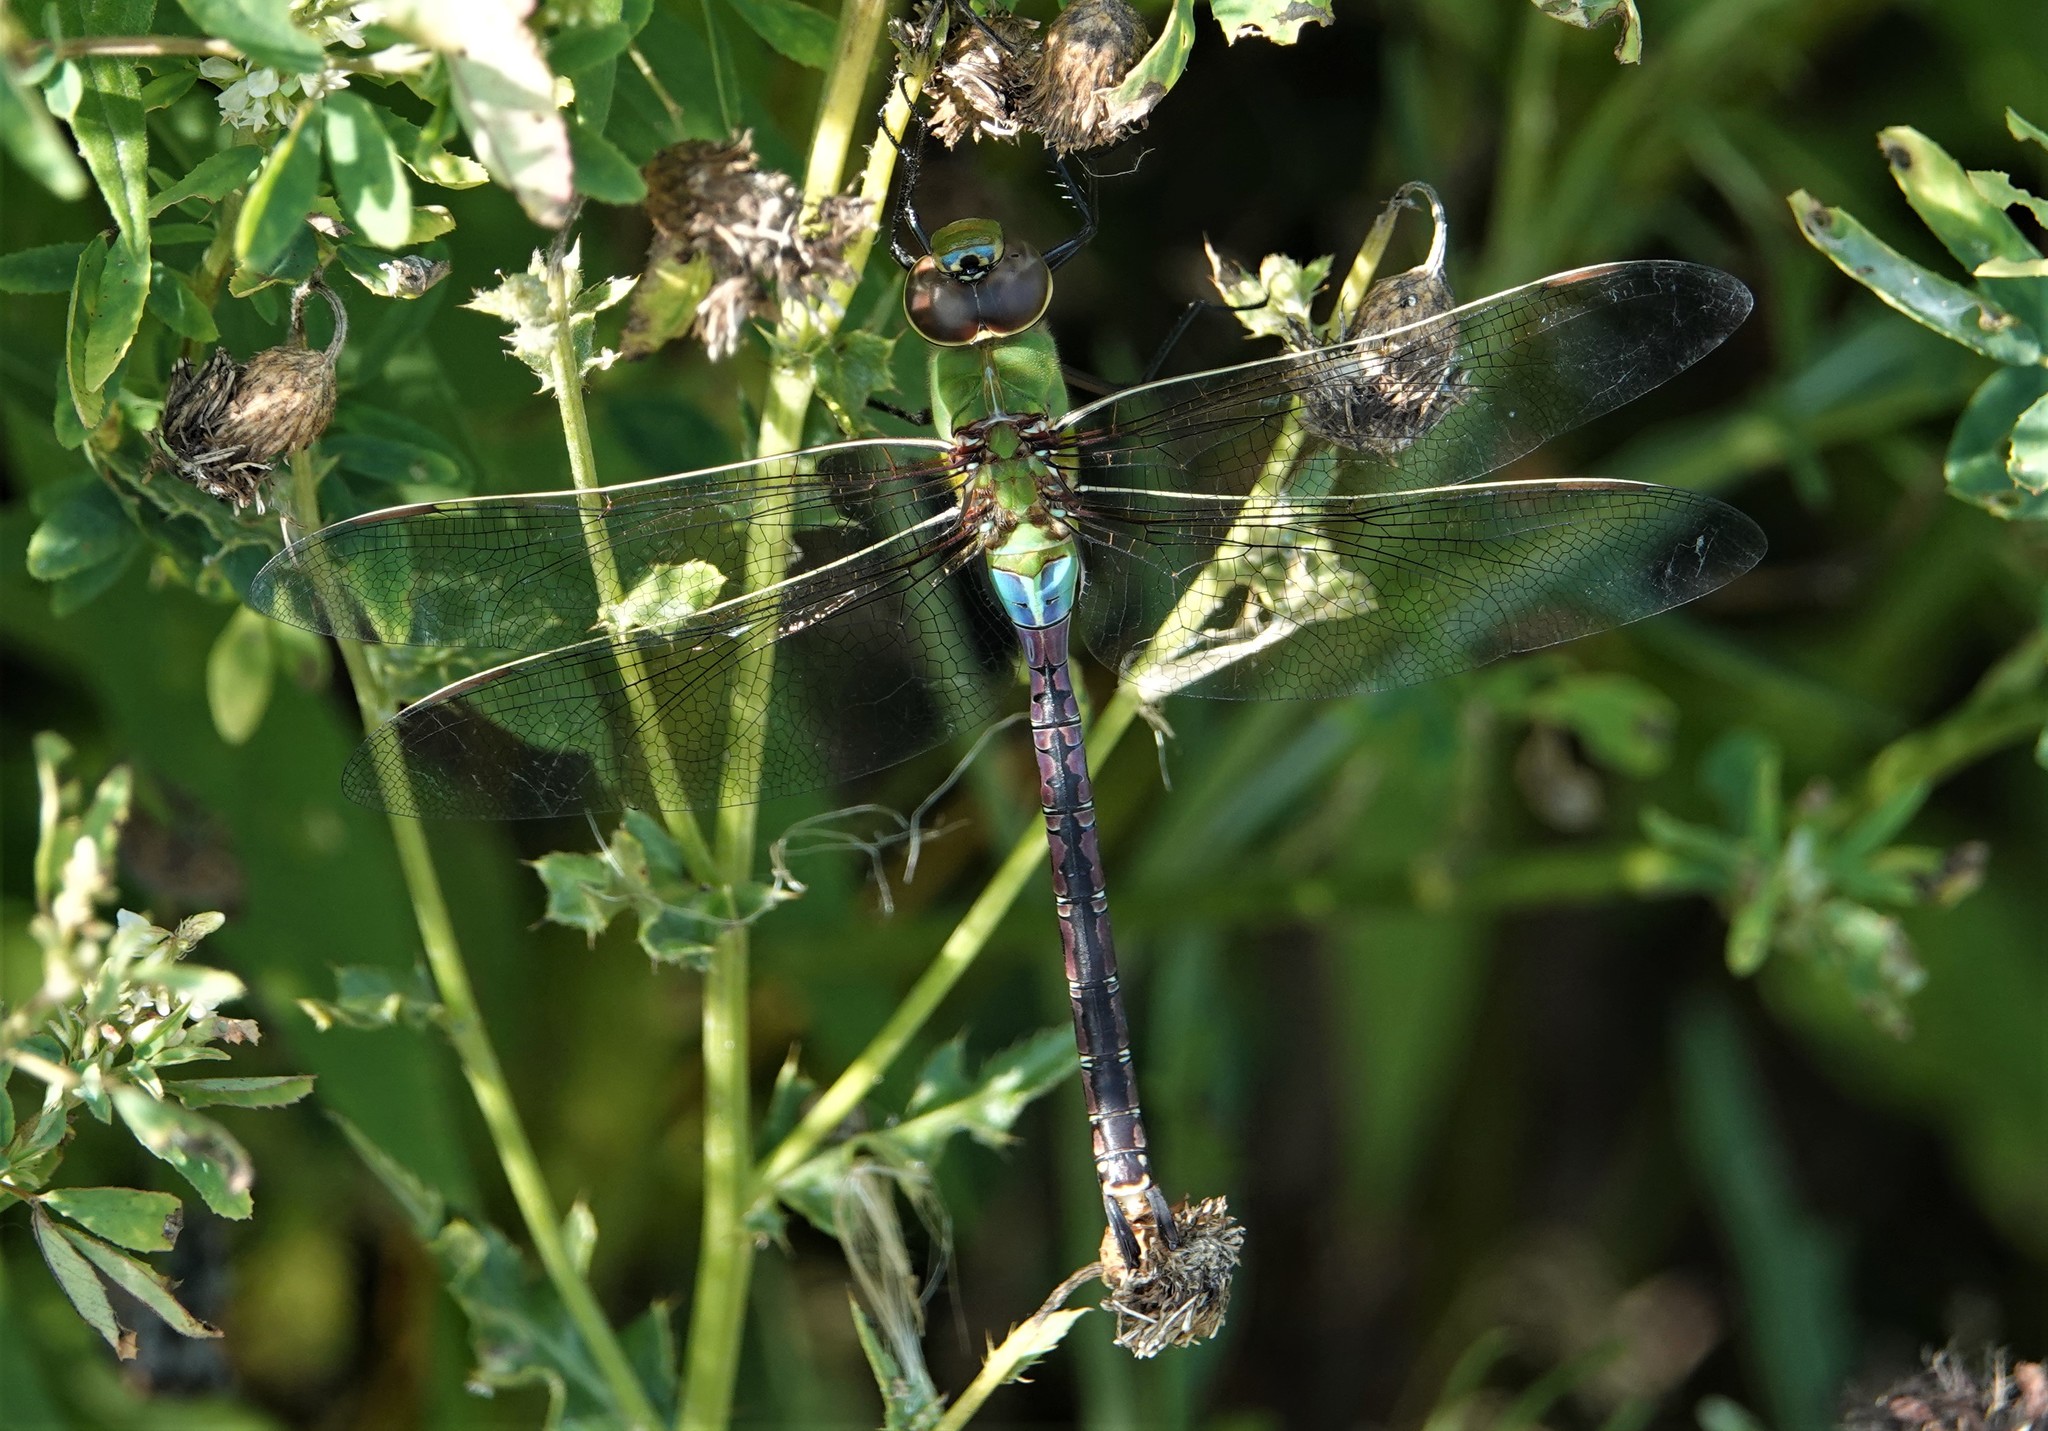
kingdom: Animalia
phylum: Arthropoda
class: Insecta
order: Odonata
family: Aeshnidae
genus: Anax
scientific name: Anax junius
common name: Common green darner
